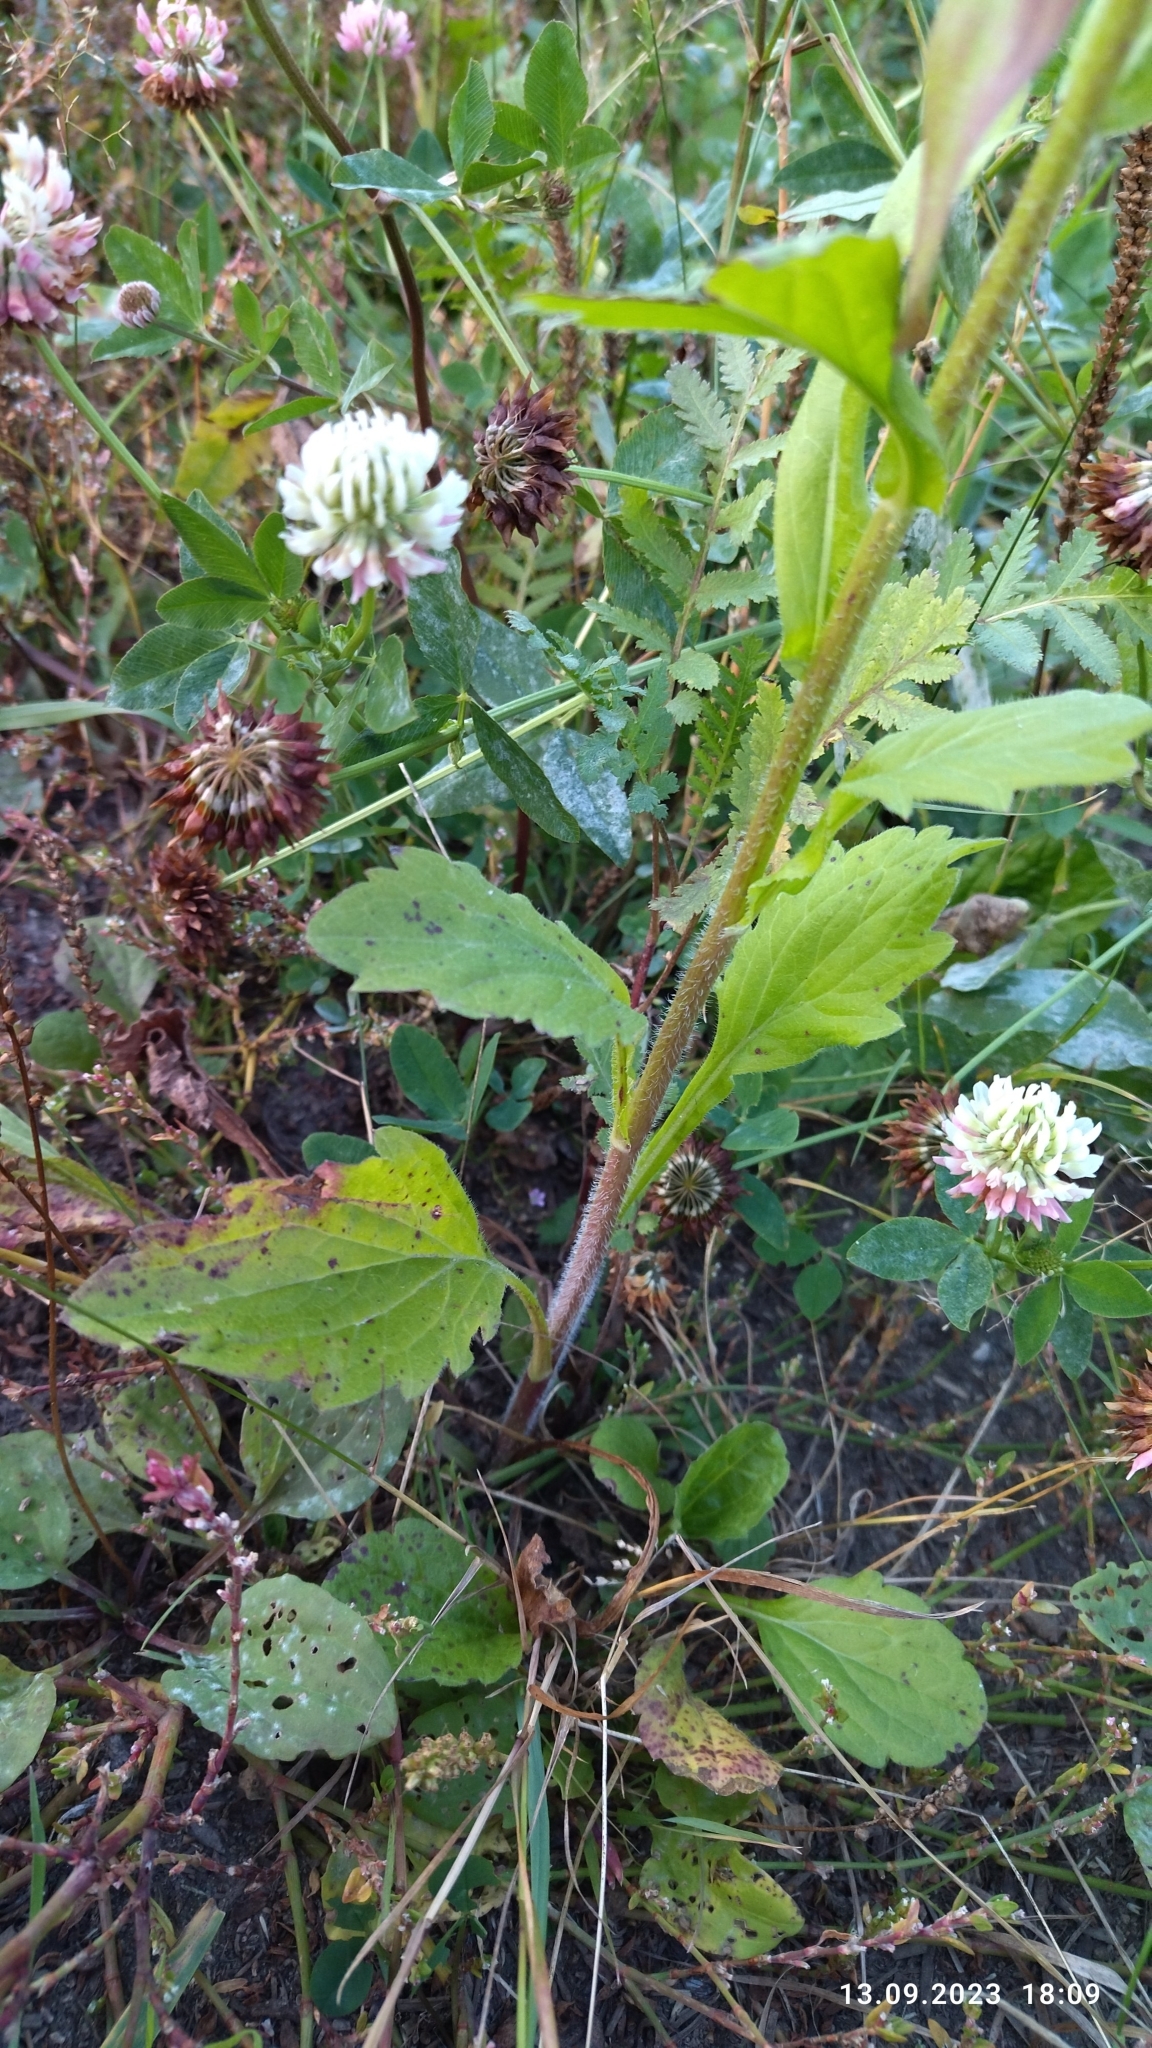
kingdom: Plantae
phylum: Tracheophyta
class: Magnoliopsida
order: Asterales
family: Asteraceae
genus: Erigeron
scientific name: Erigeron annuus
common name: Tall fleabane
